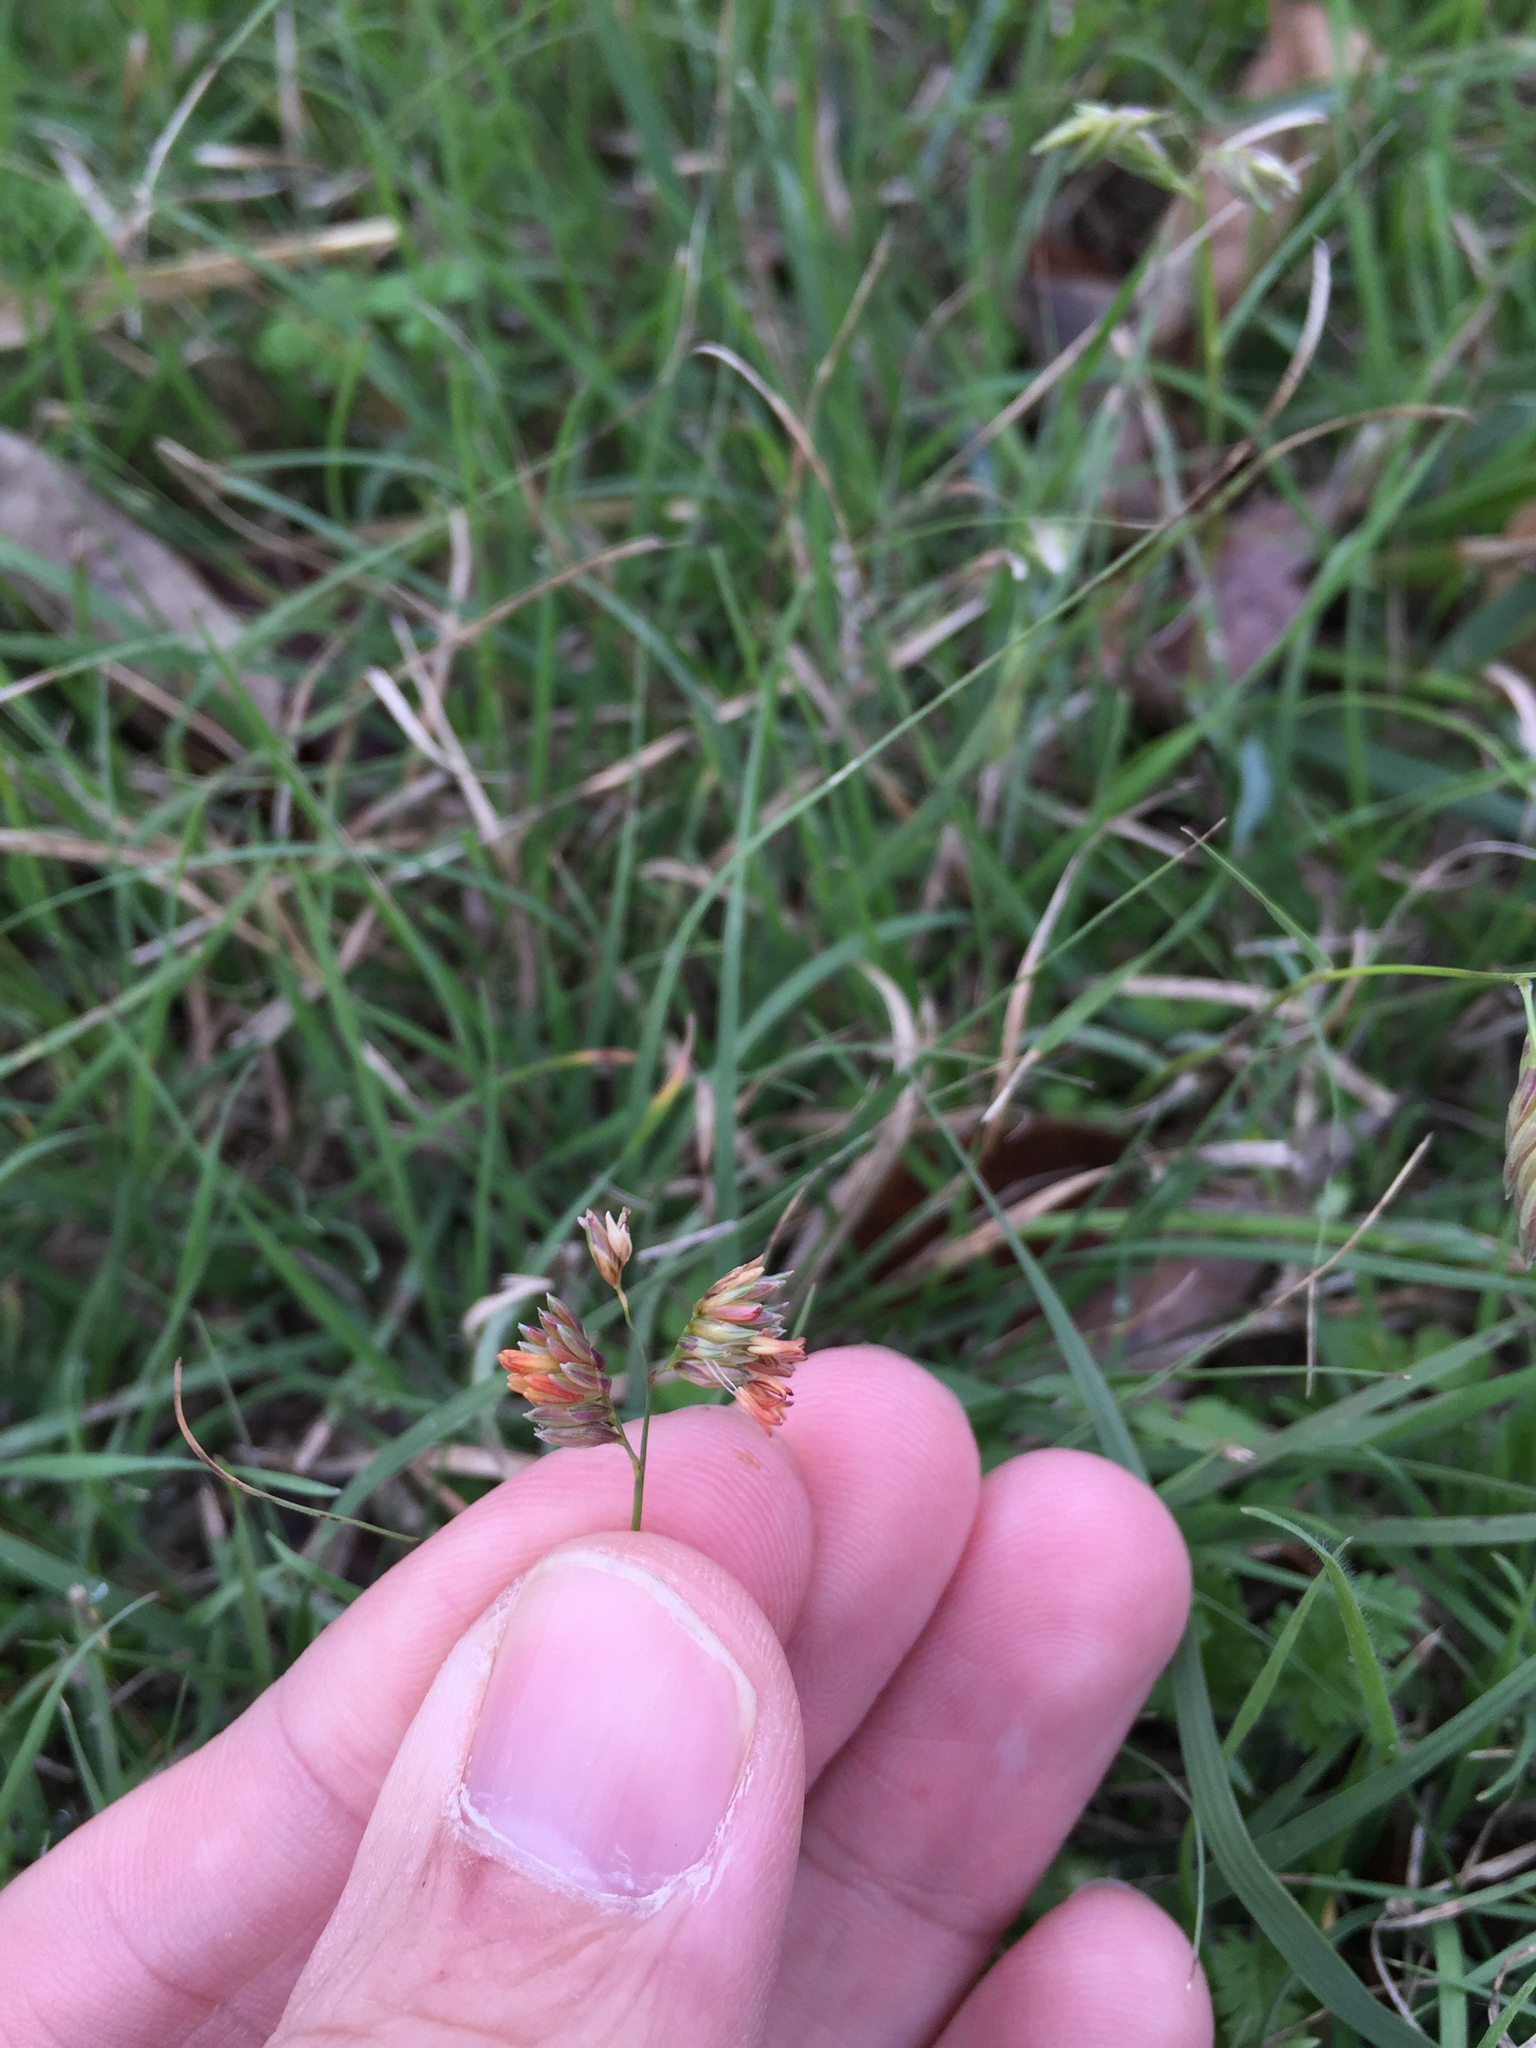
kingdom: Plantae
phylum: Tracheophyta
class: Liliopsida
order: Poales
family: Poaceae
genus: Bouteloua
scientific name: Bouteloua dactyloides
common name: Buffalo grass
